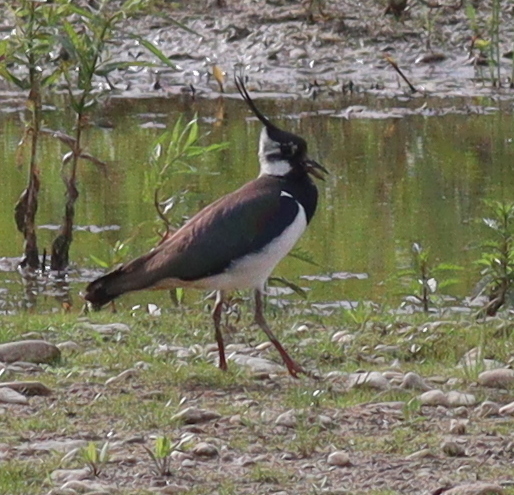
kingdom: Animalia
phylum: Chordata
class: Aves
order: Charadriiformes
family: Charadriidae
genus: Vanellus
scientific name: Vanellus vanellus
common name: Northern lapwing
